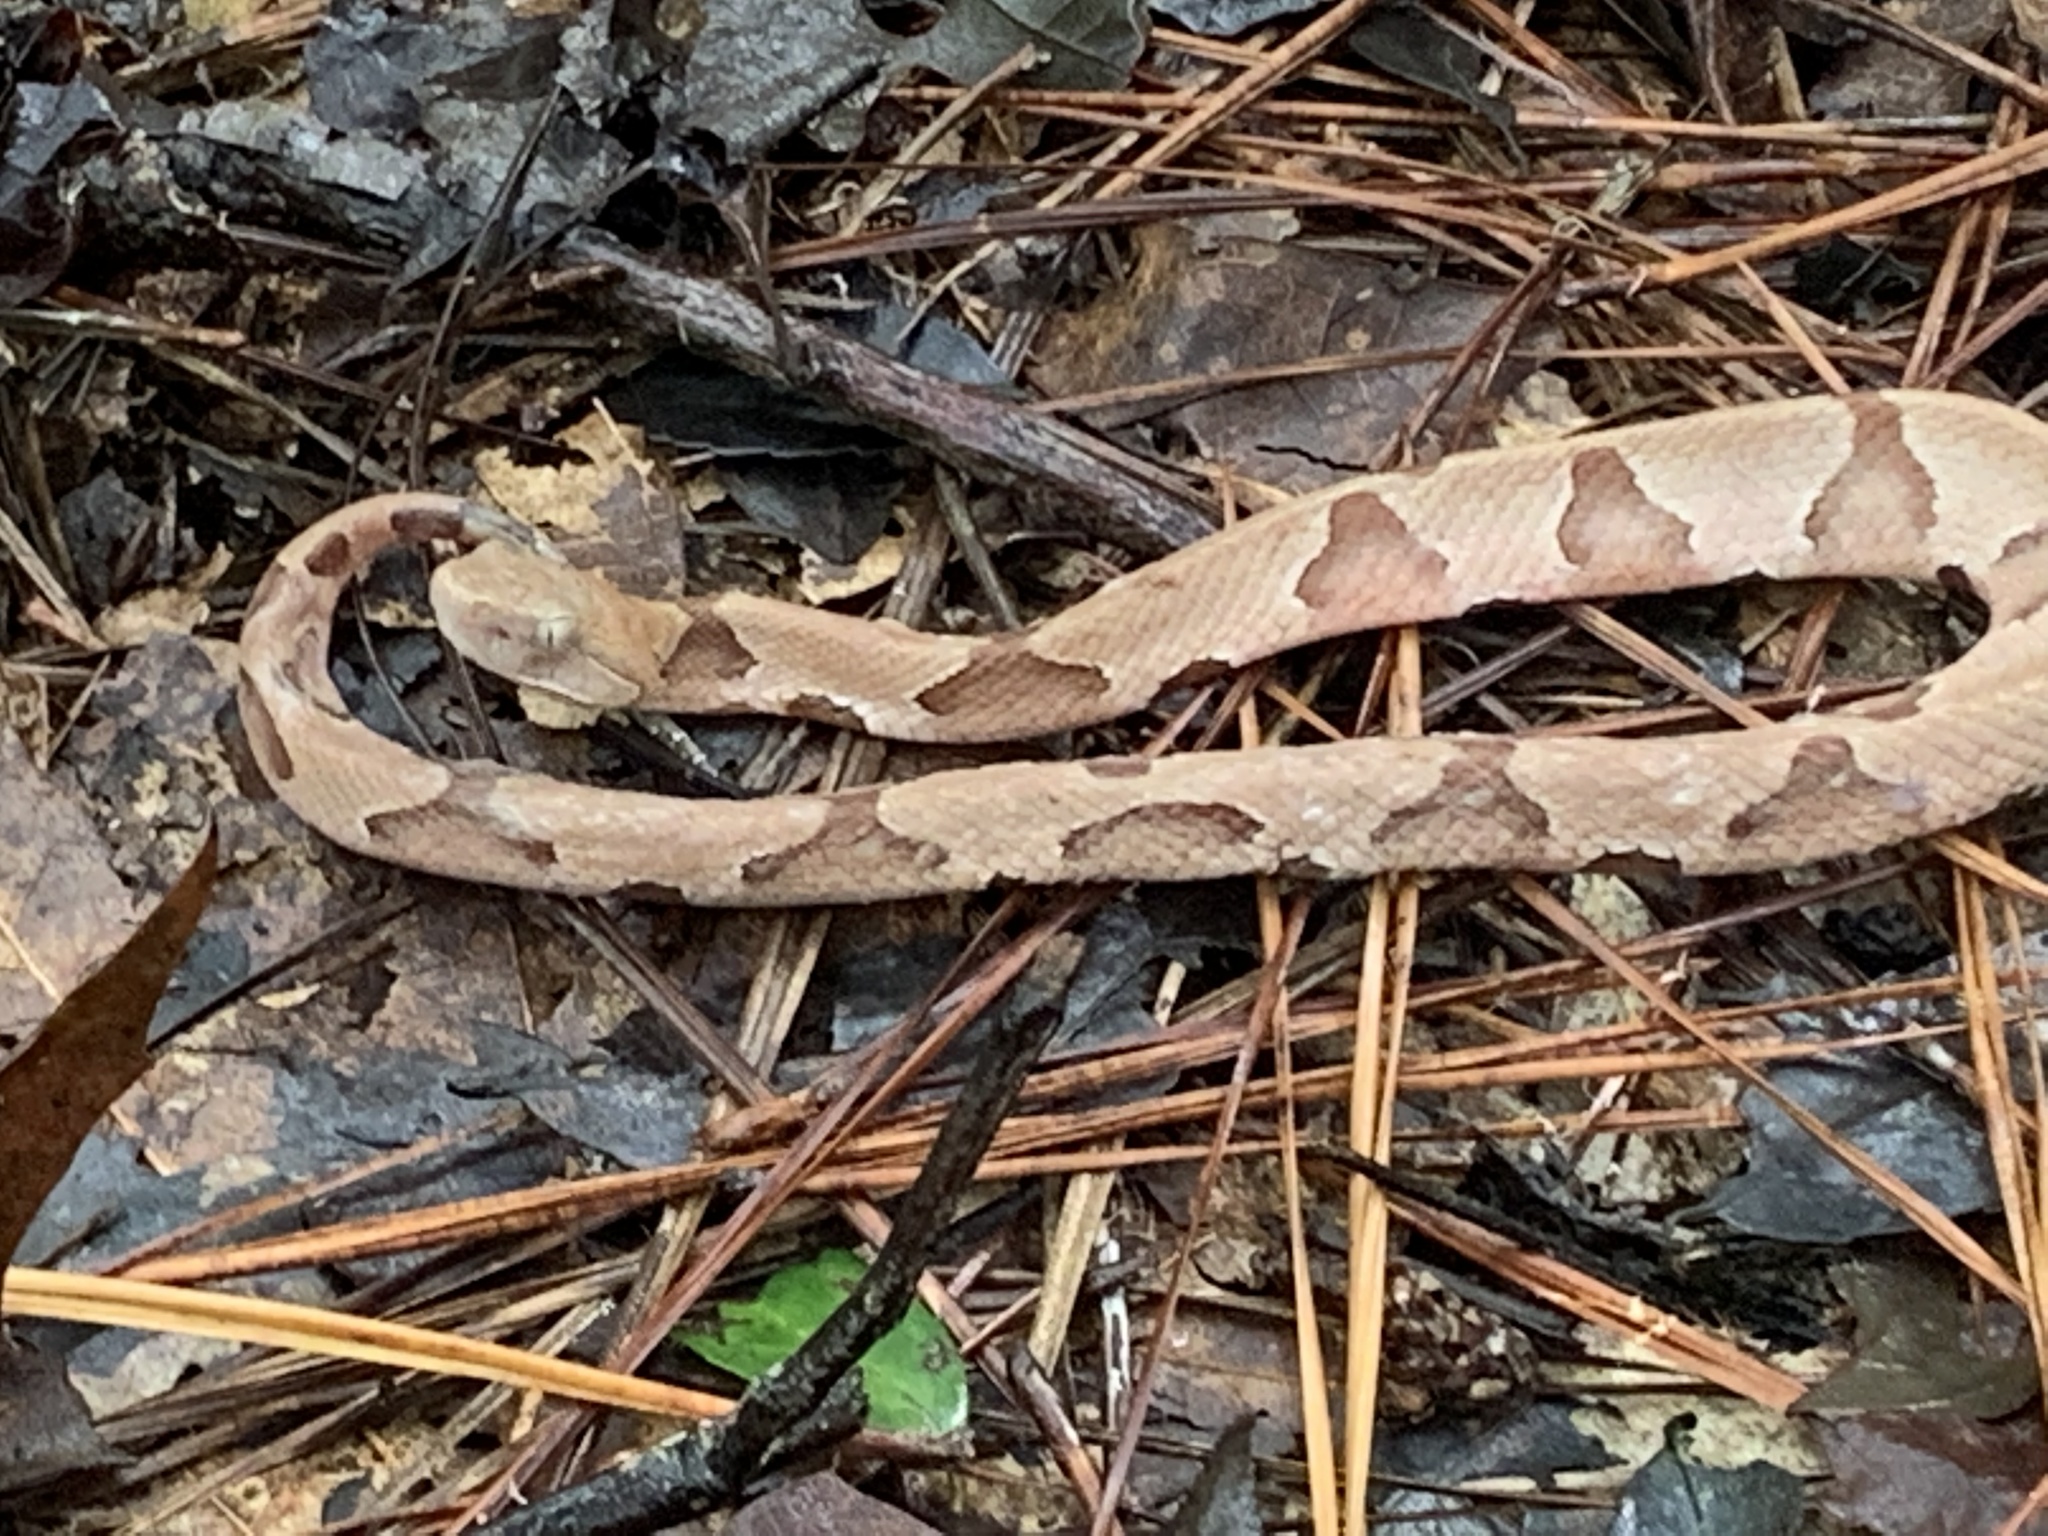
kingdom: Animalia
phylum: Chordata
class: Squamata
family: Viperidae
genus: Agkistrodon
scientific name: Agkistrodon contortrix
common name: Northern copperhead
